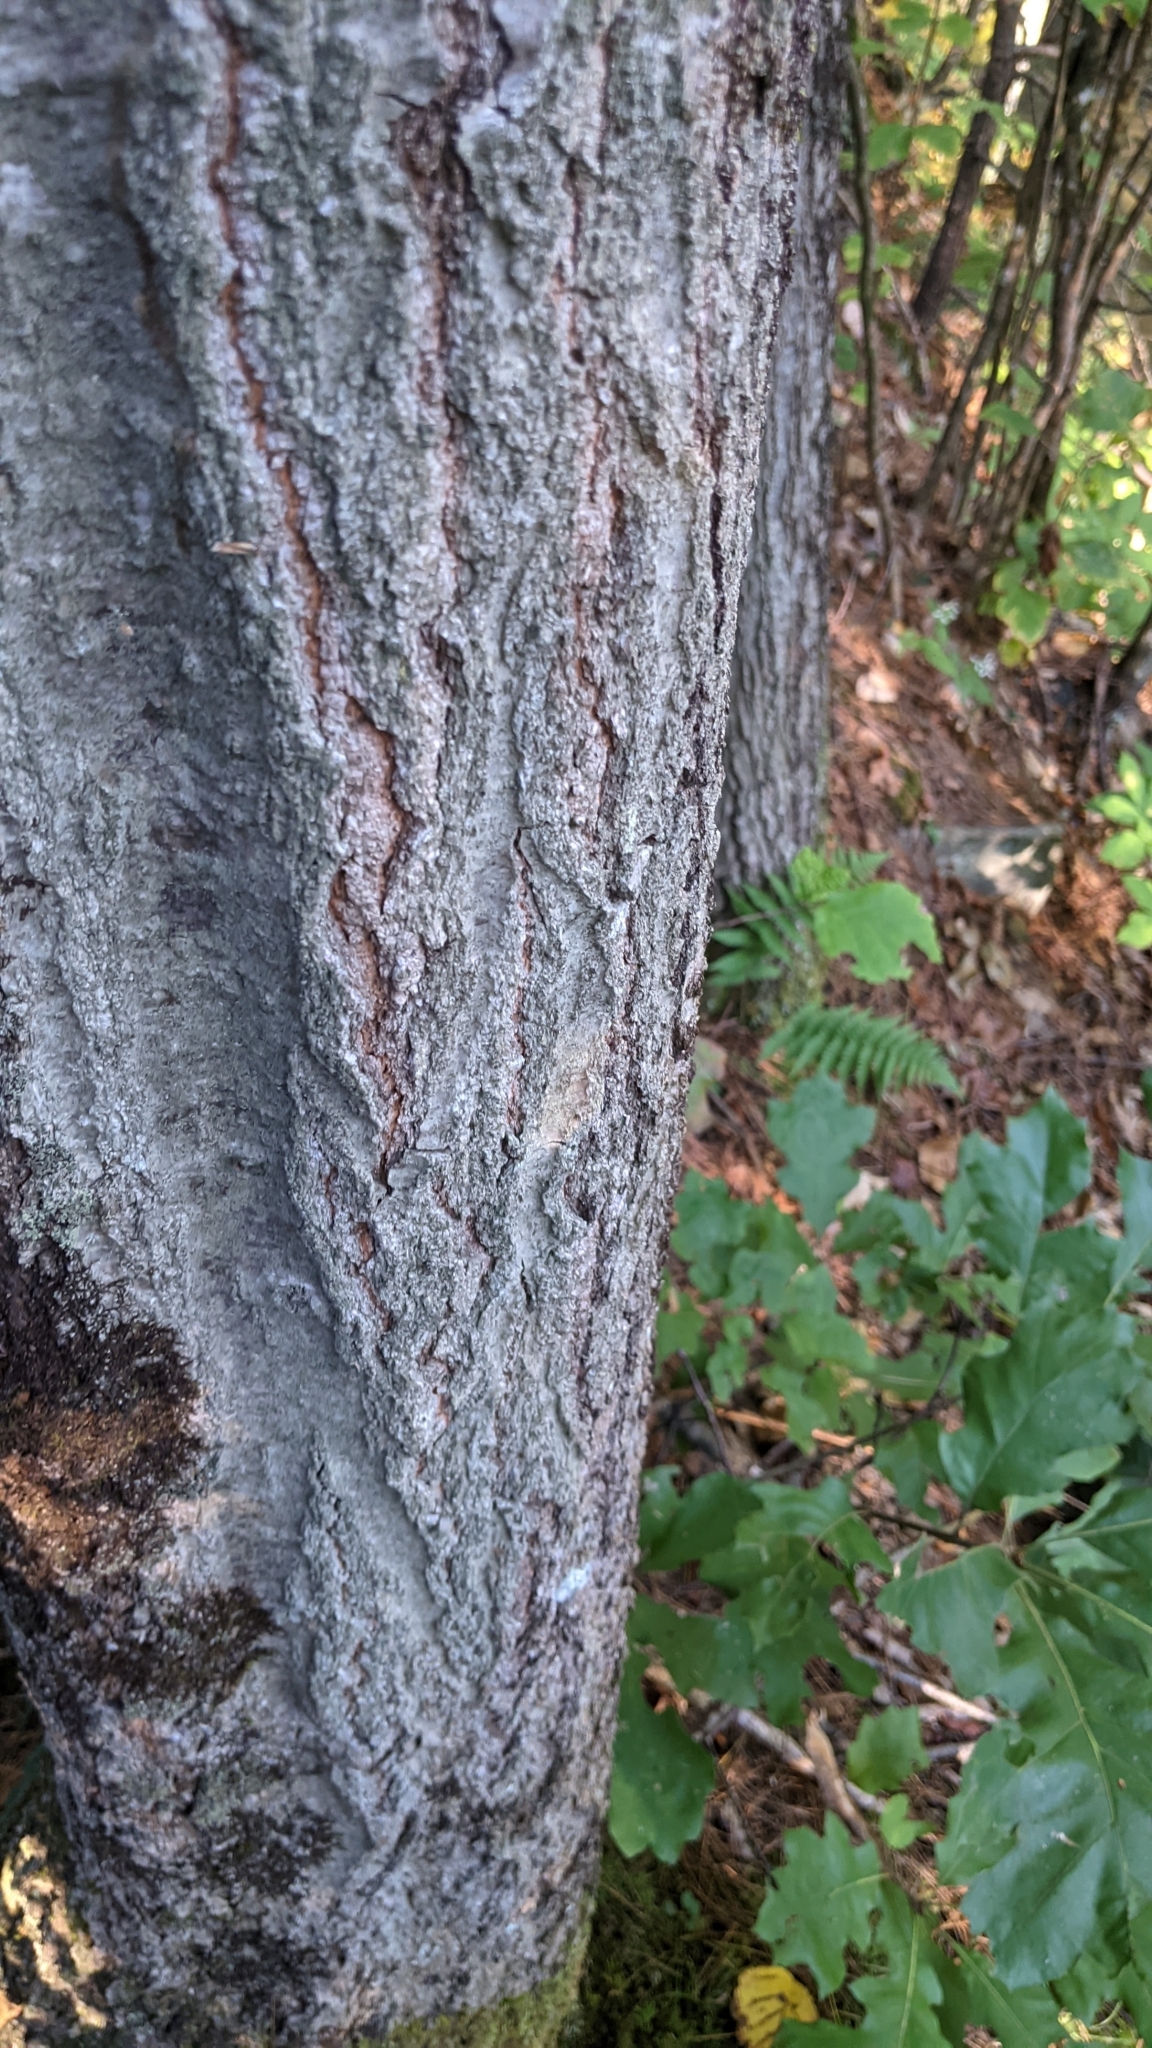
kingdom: Plantae
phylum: Tracheophyta
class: Magnoliopsida
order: Fagales
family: Fagaceae
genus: Quercus
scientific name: Quercus alba
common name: White oak
